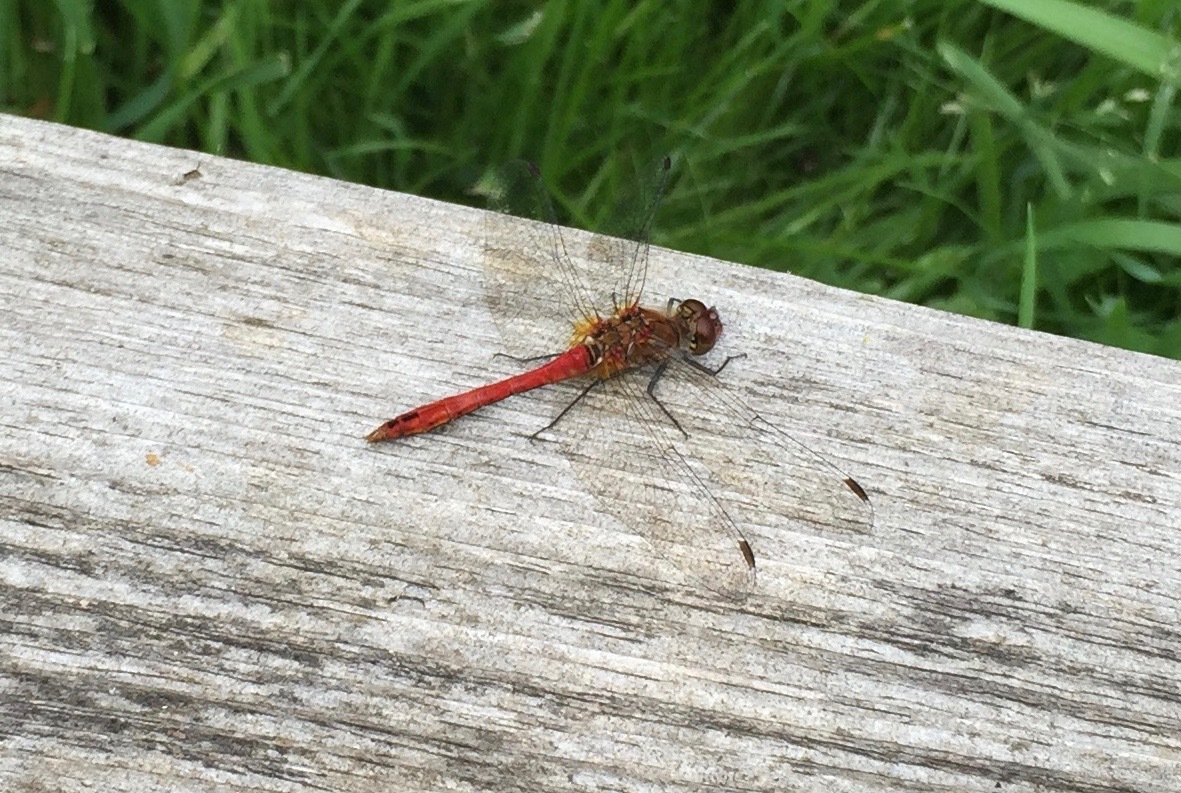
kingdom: Animalia
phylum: Arthropoda
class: Insecta
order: Odonata
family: Libellulidae
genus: Sympetrum
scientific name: Sympetrum sanguineum
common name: Ruddy darter
